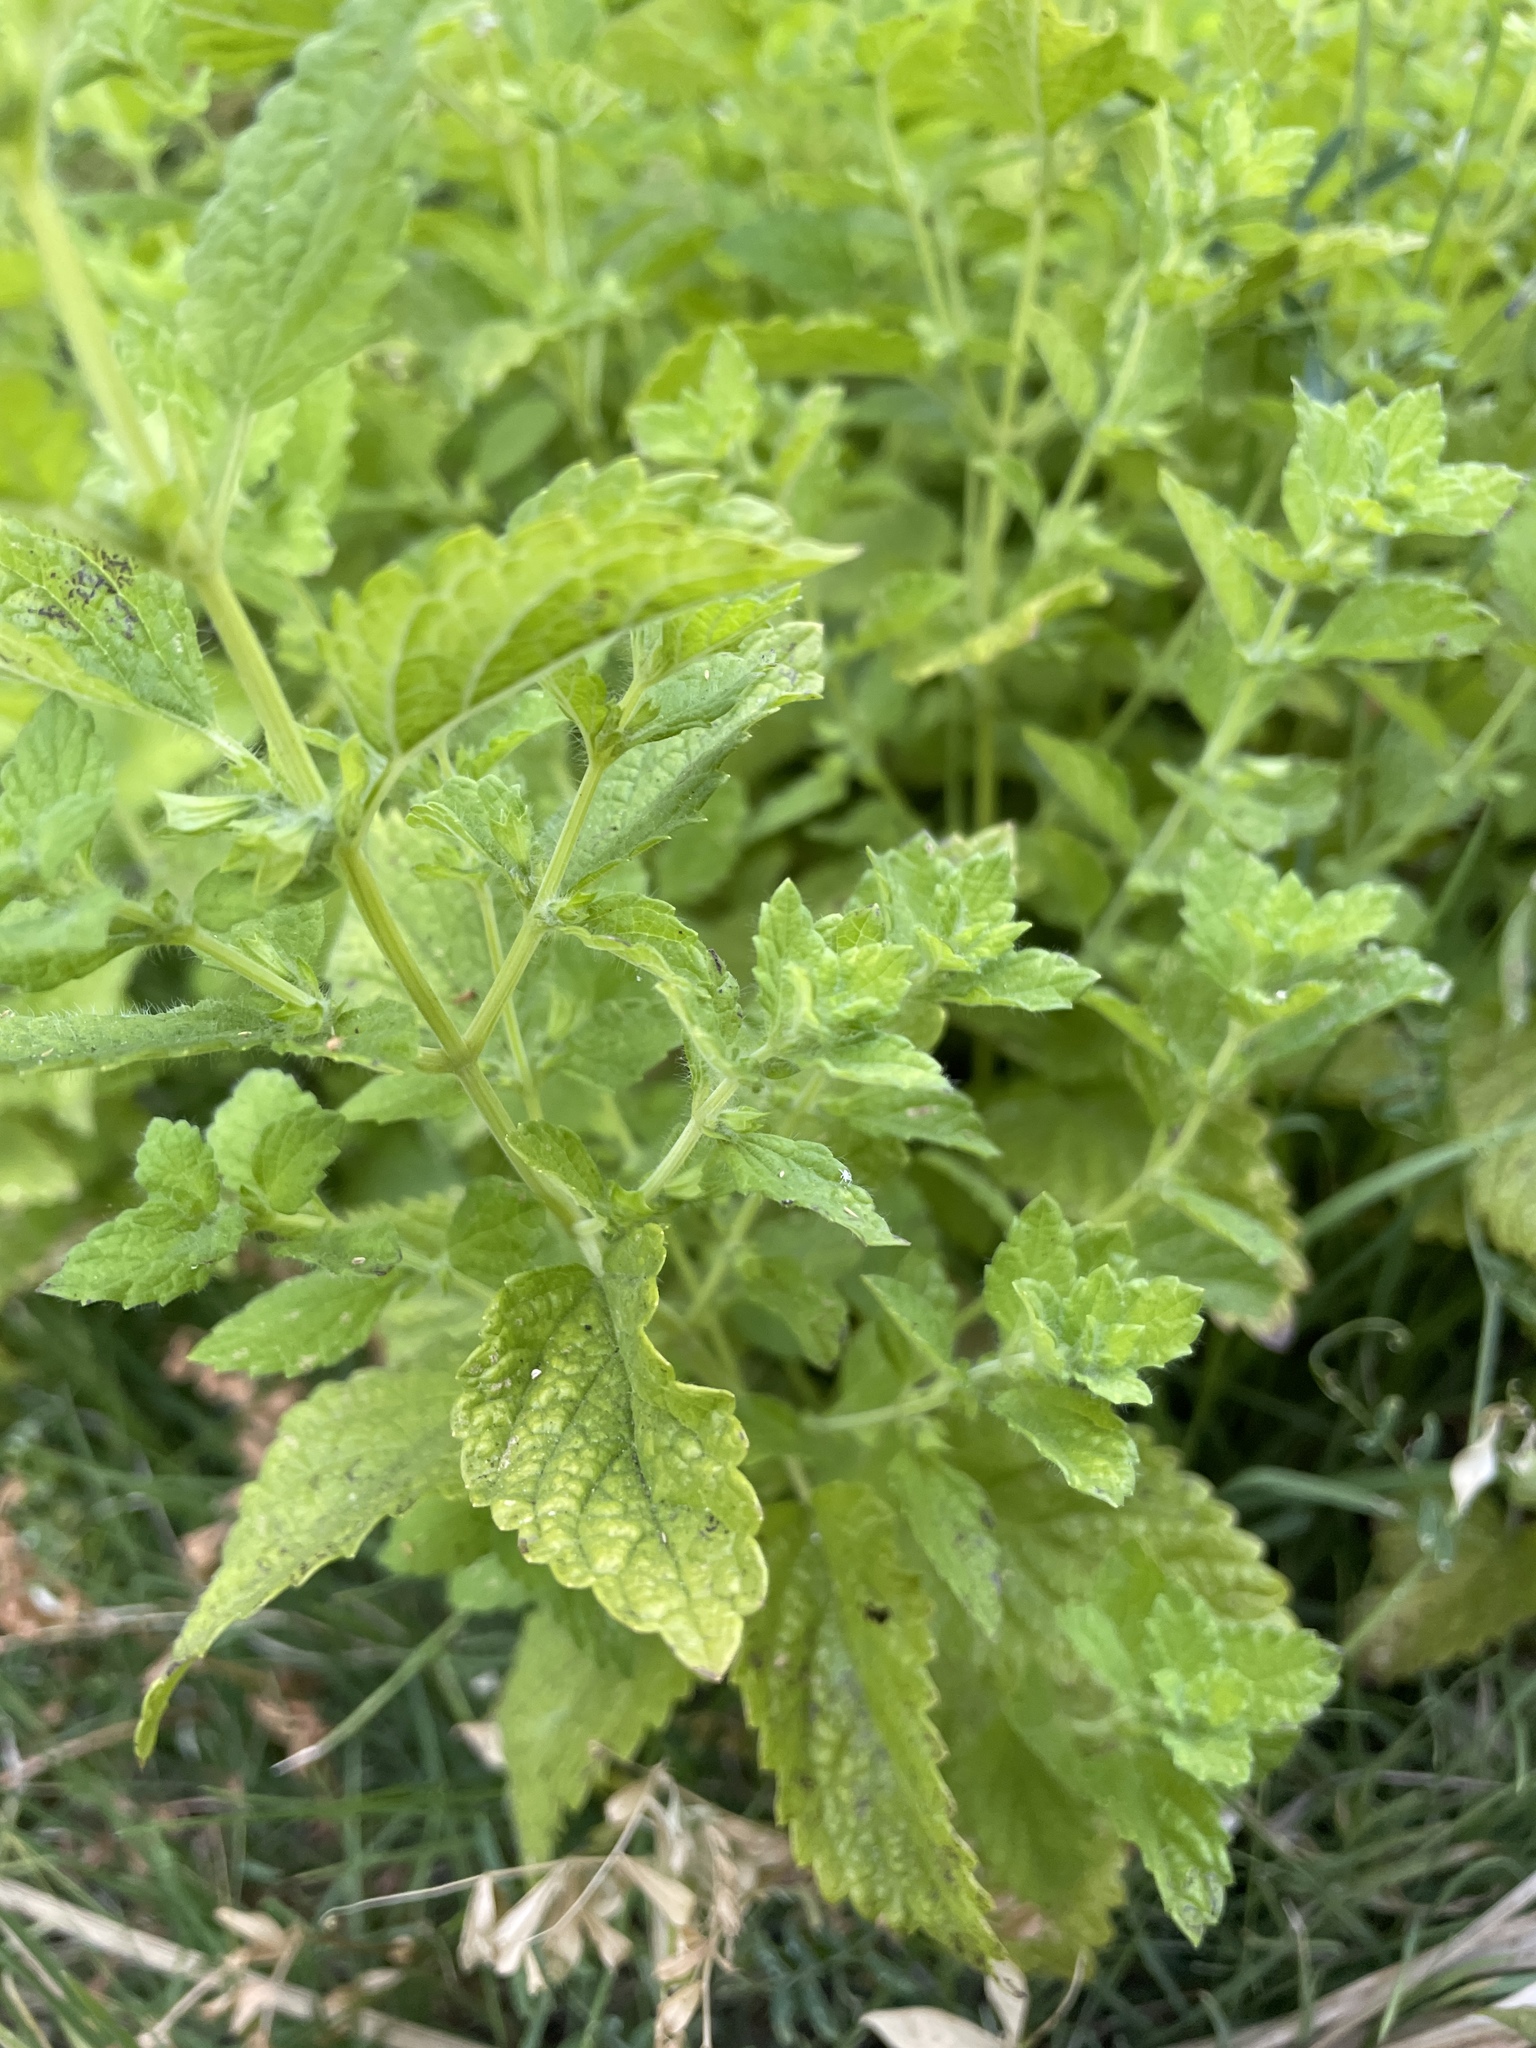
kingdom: Plantae
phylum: Tracheophyta
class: Magnoliopsida
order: Lamiales
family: Lamiaceae
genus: Melissa
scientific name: Melissa officinalis
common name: Balm
